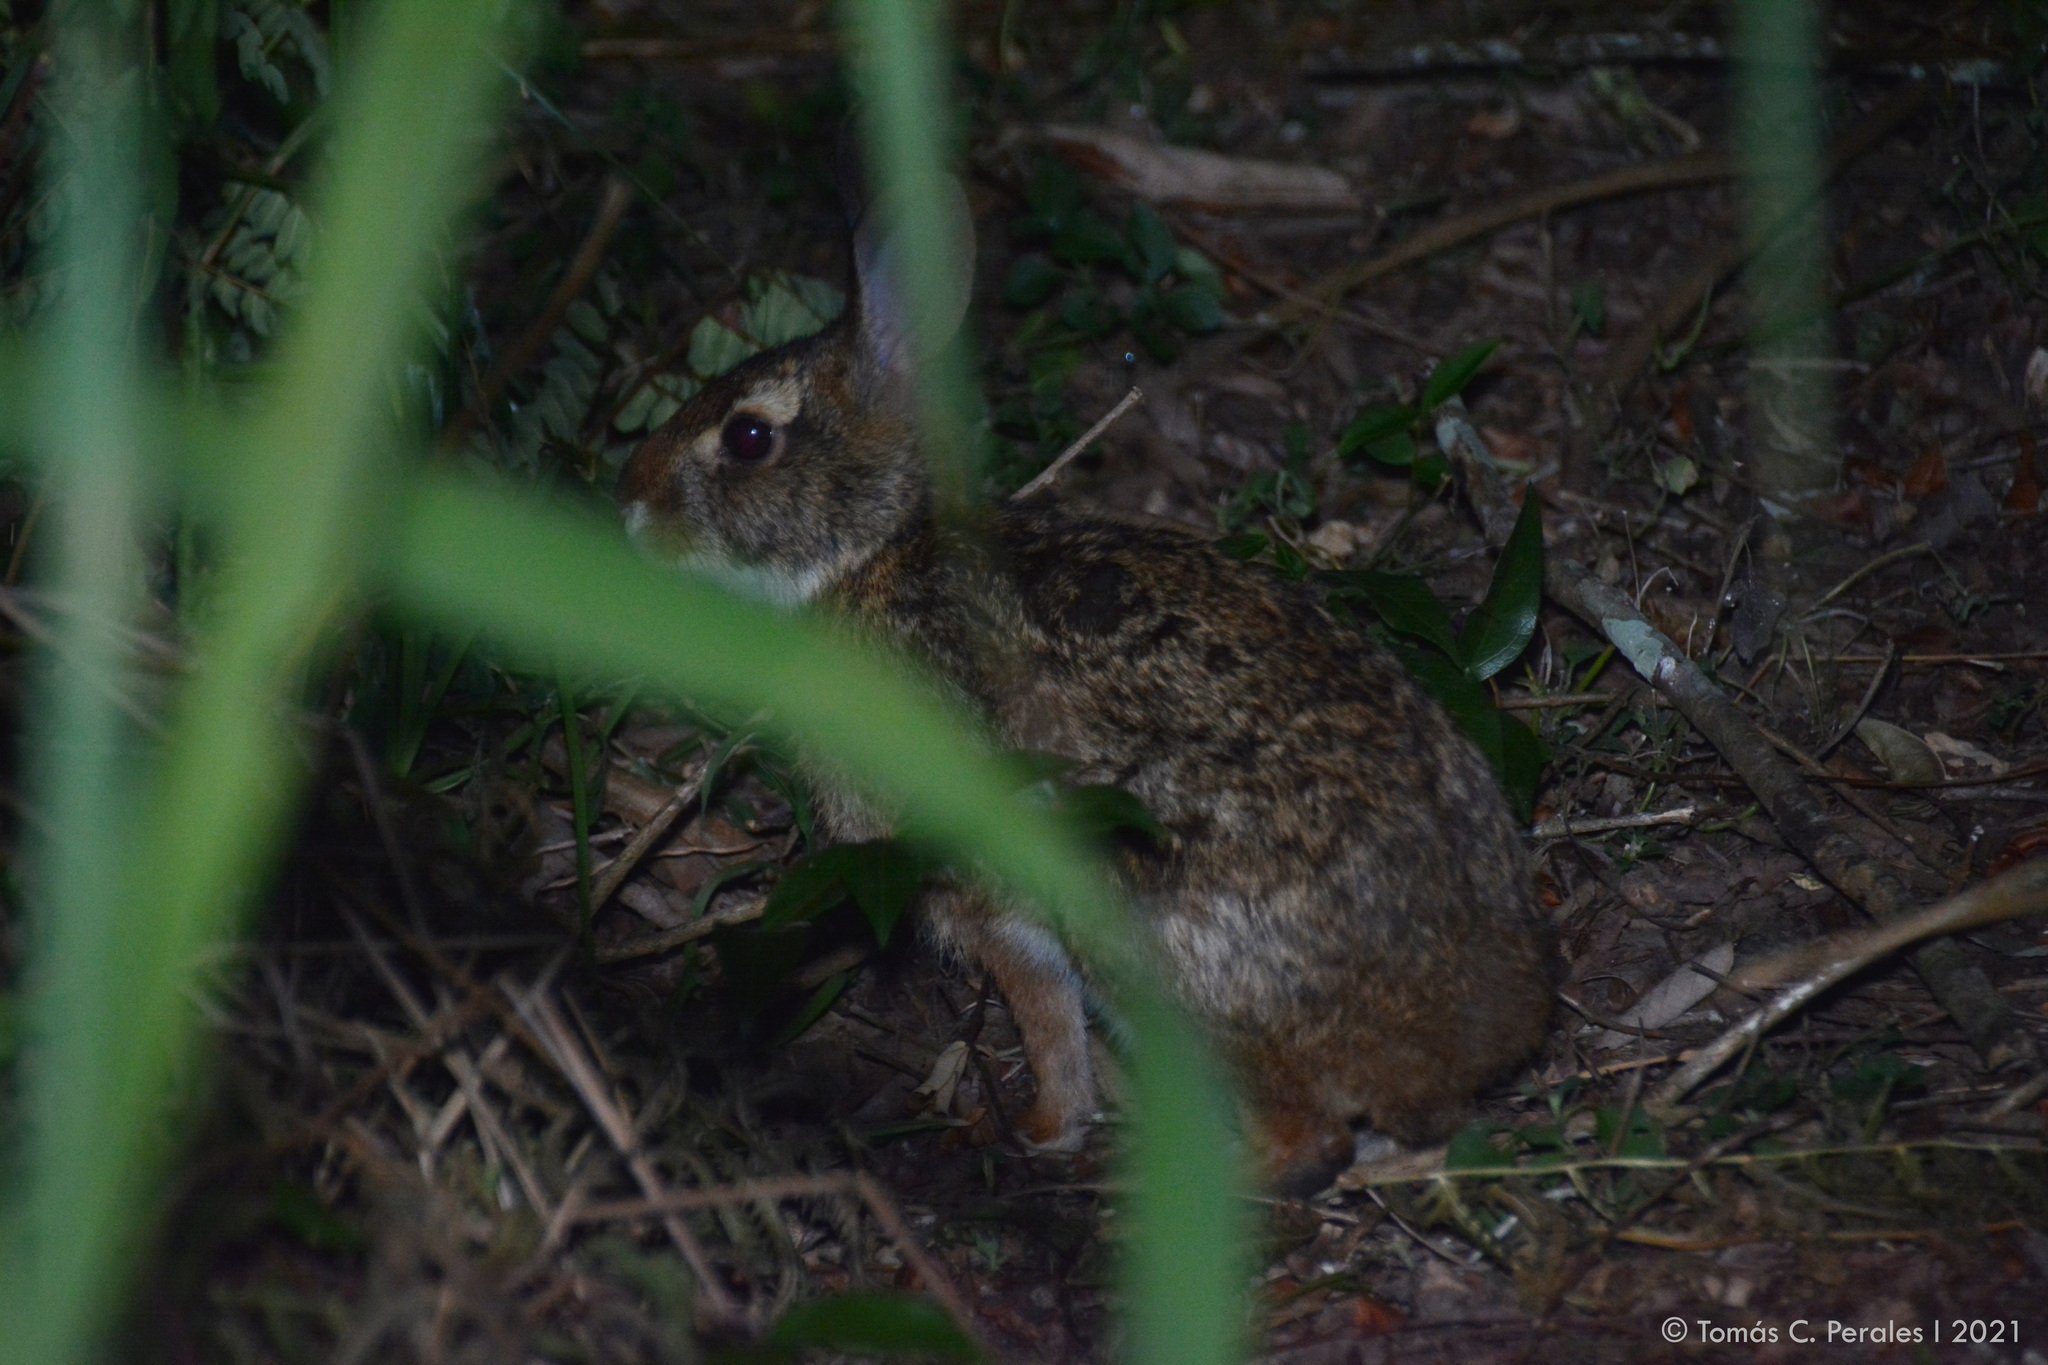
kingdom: Animalia
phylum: Chordata
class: Mammalia
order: Lagomorpha
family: Leporidae
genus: Sylvilagus
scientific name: Sylvilagus brasiliensis
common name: Tapeti
